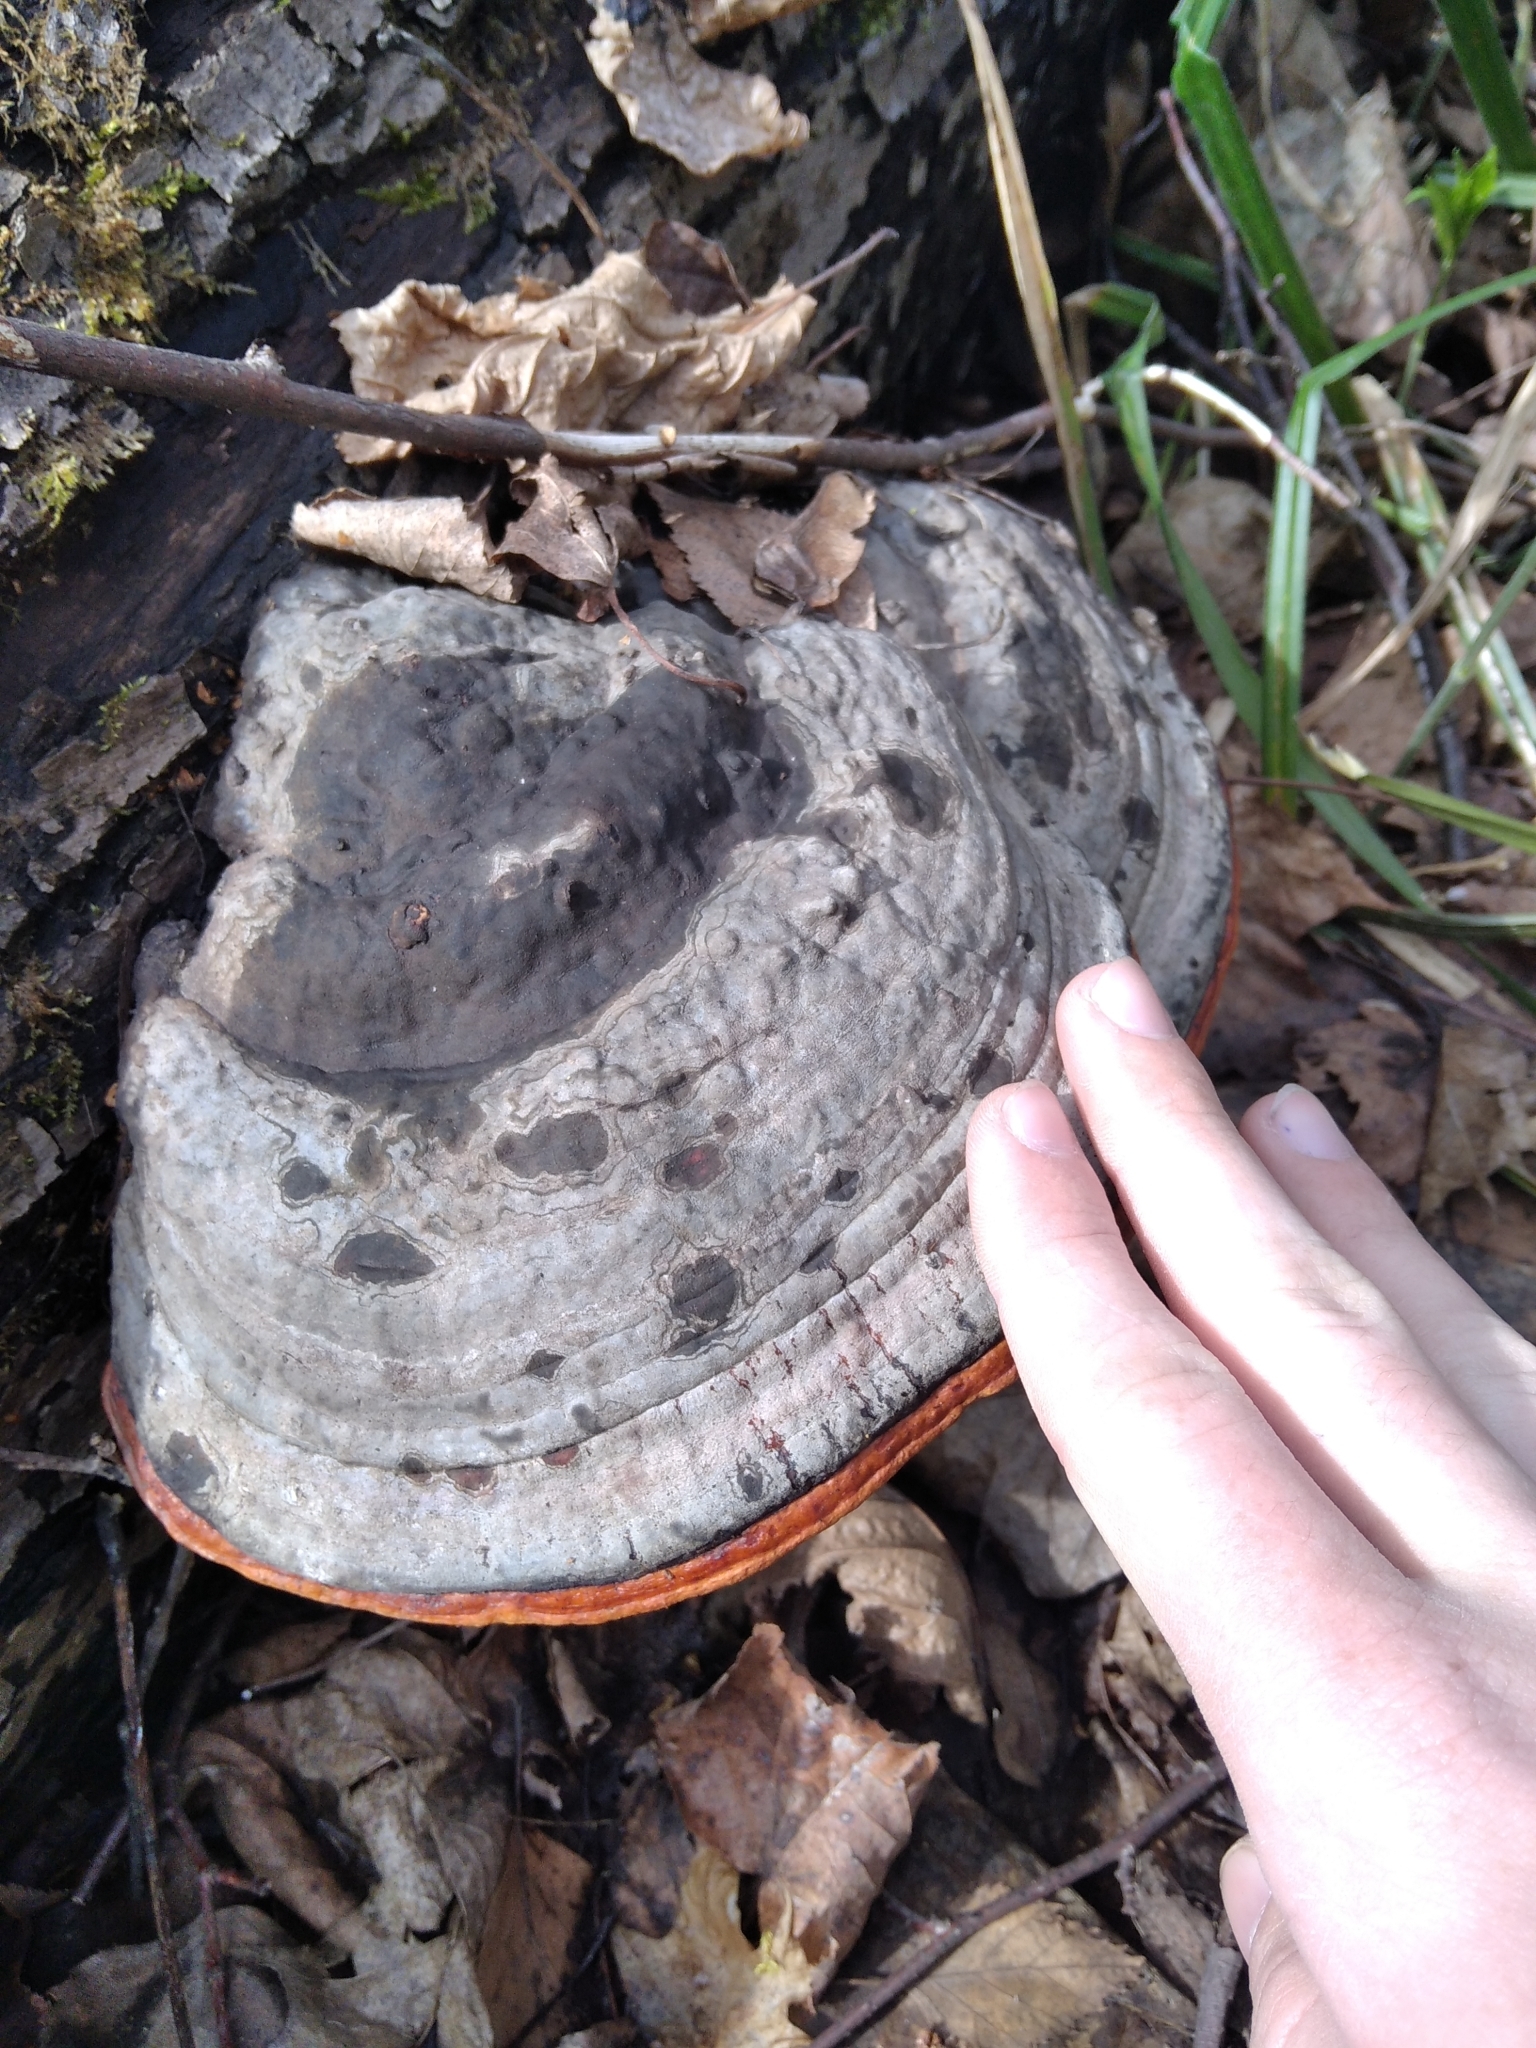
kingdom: Fungi
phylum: Basidiomycota
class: Agaricomycetes
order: Polyporales
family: Fomitopsidaceae
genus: Fomitopsis
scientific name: Fomitopsis pinicola
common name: Red-belted bracket
